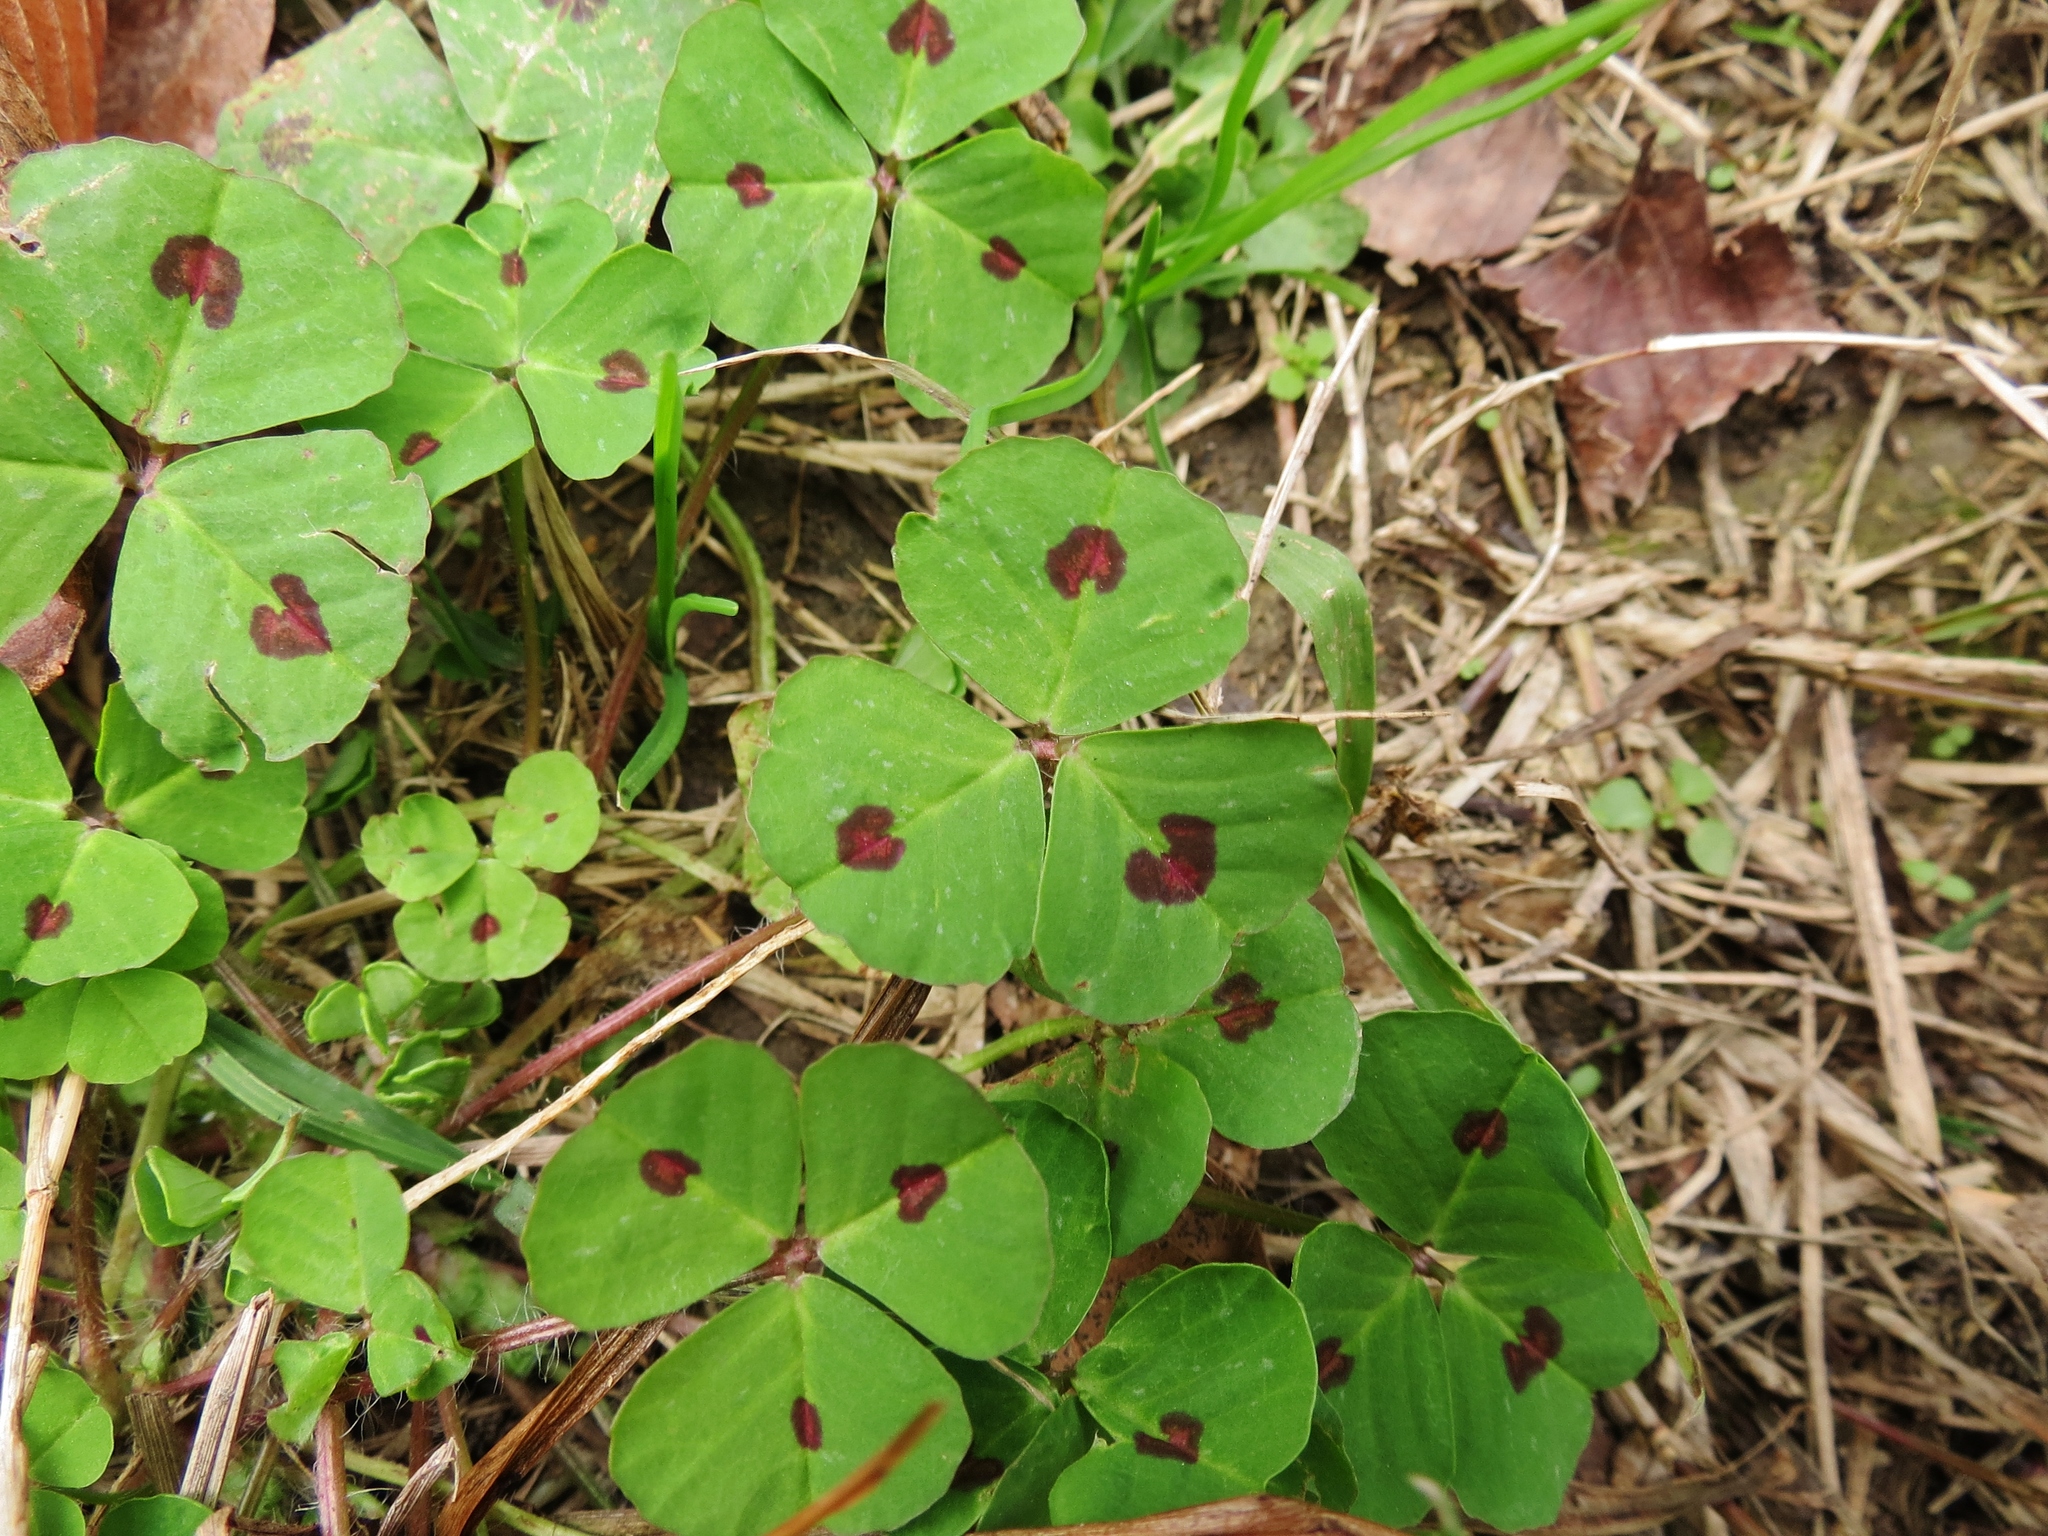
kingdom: Plantae
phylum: Tracheophyta
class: Magnoliopsida
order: Fabales
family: Fabaceae
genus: Medicago
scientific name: Medicago arabica
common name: Spotted medick
